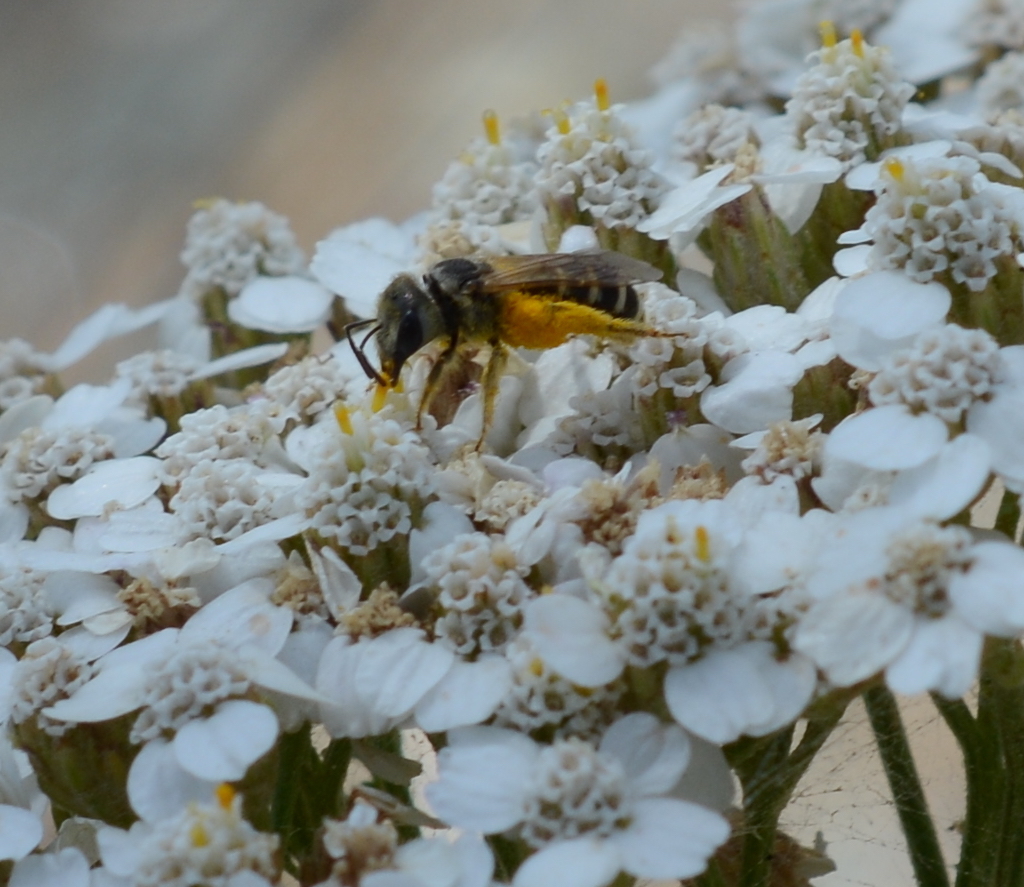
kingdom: Animalia
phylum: Arthropoda
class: Insecta
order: Hymenoptera
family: Halictidae
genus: Halictus
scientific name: Halictus ligatus
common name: Ligated furrow bee
